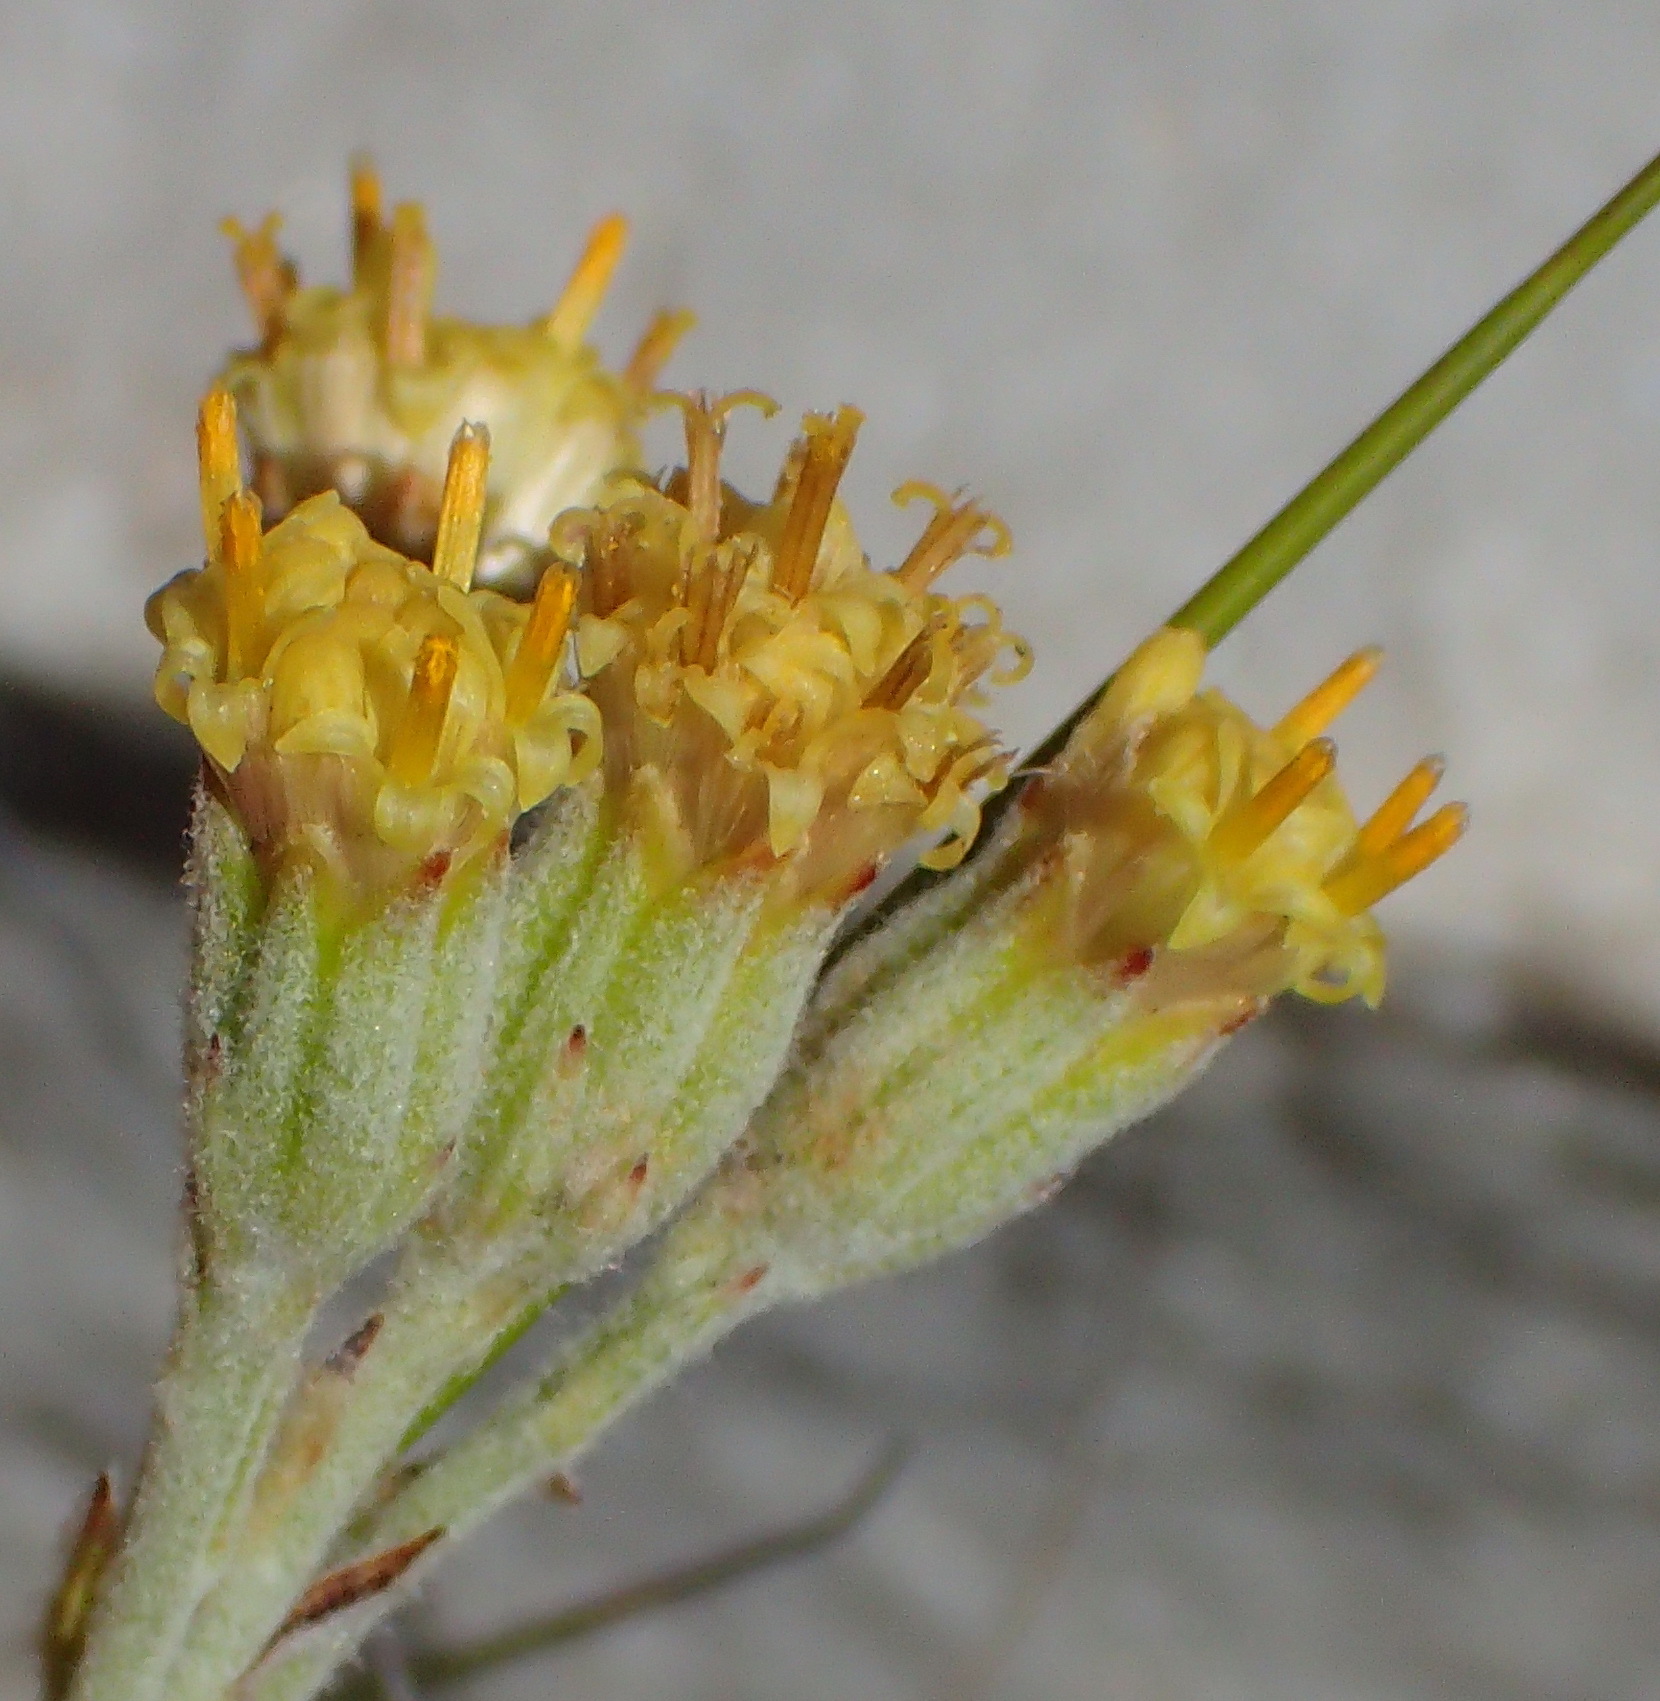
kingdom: Plantae
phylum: Tracheophyta
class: Magnoliopsida
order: Asterales
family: Asteraceae
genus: Senecio
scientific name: Senecio pauciflosculosus
